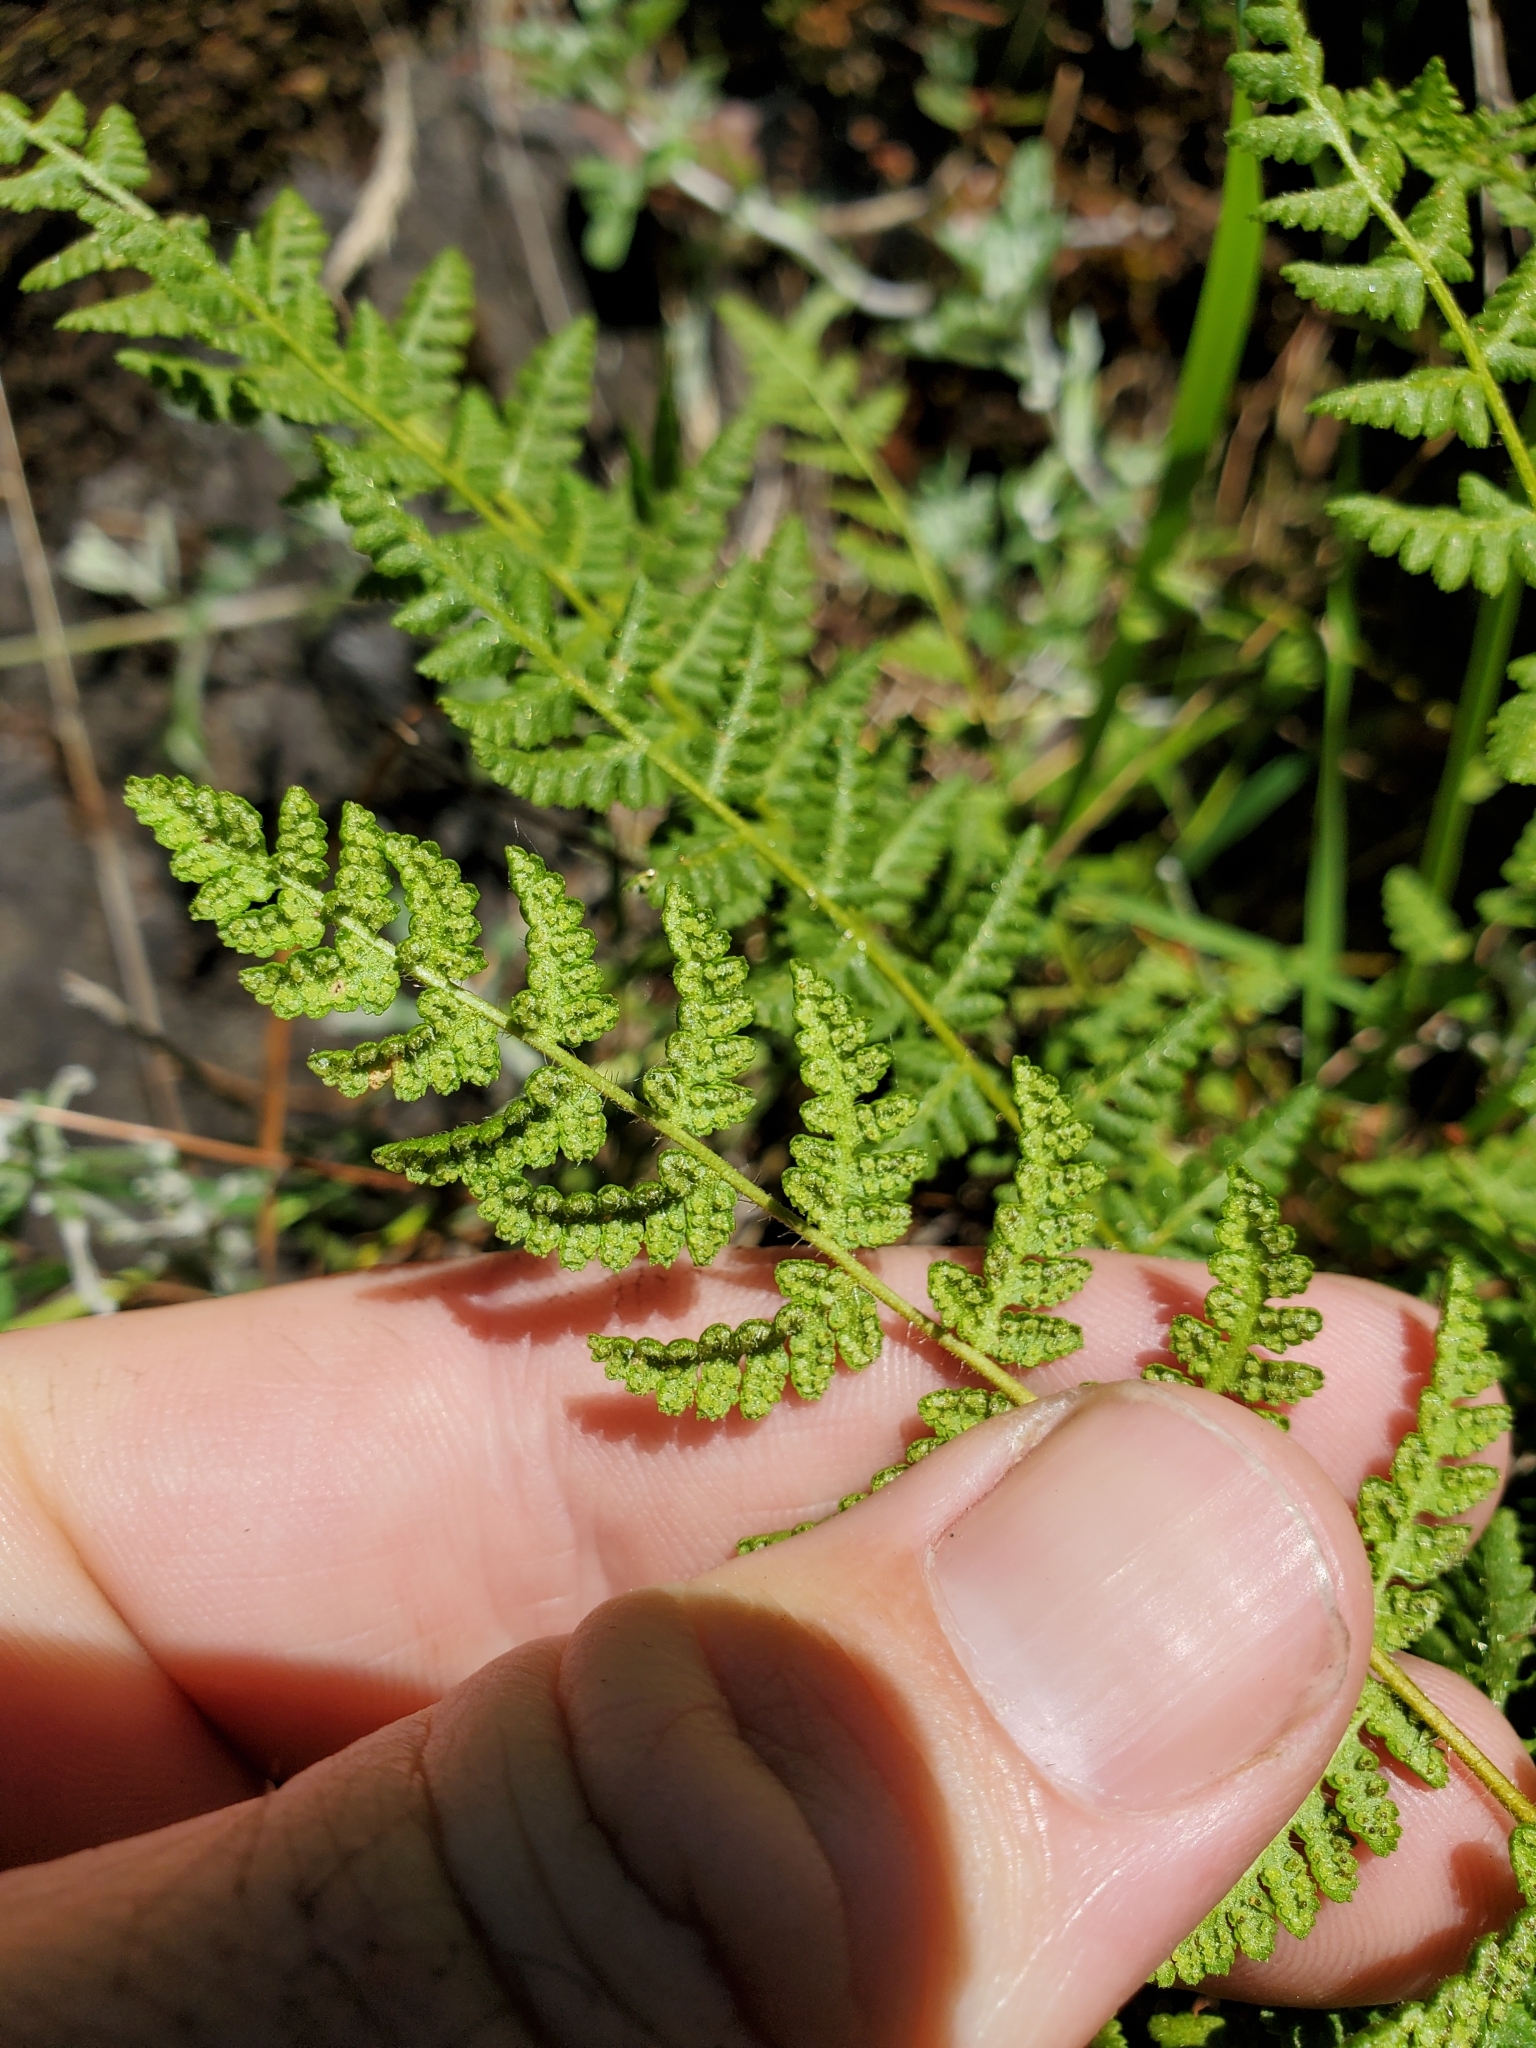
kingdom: Plantae
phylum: Tracheophyta
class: Polypodiopsida
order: Polypodiales
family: Woodsiaceae
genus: Physematium
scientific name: Physematium scopulinum
